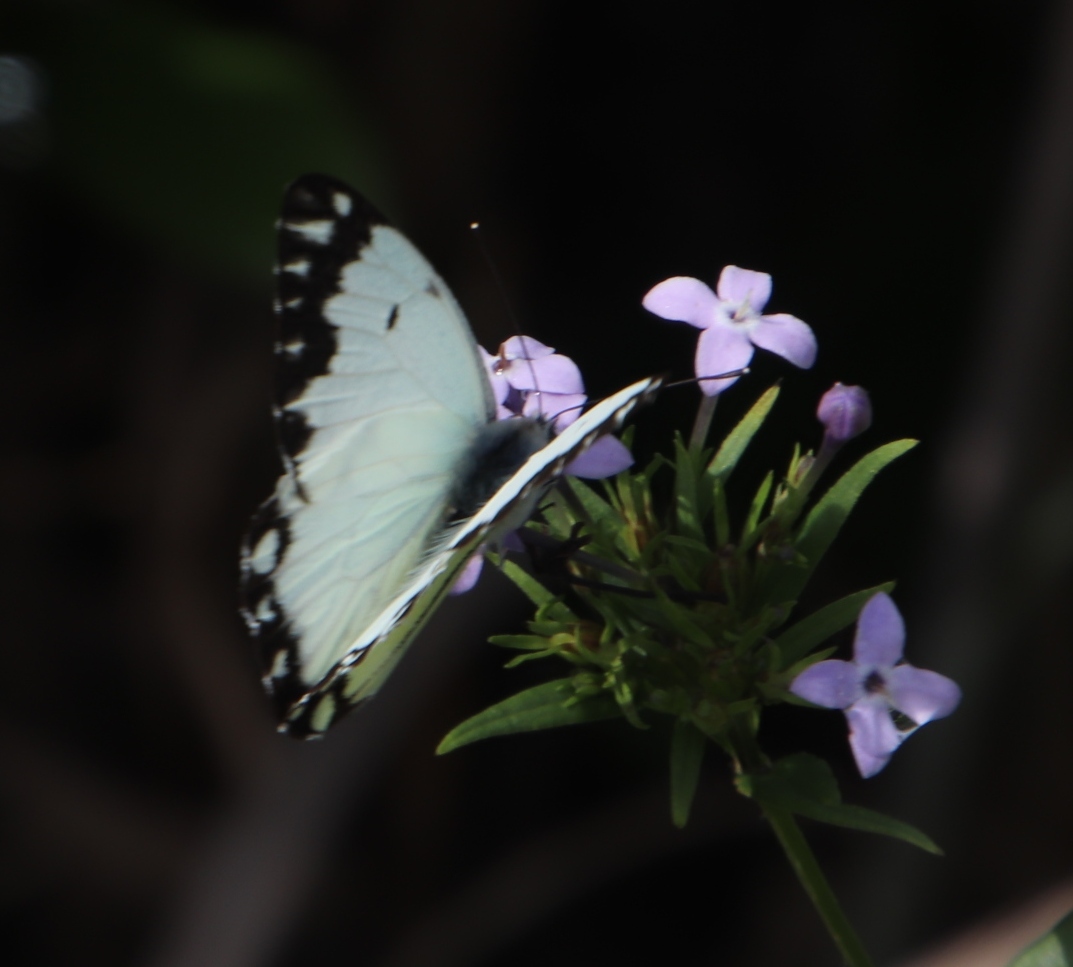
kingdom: Plantae
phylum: Tracheophyta
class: Magnoliopsida
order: Gentianales
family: Rubiaceae
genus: Conostomium
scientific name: Conostomium natalense
